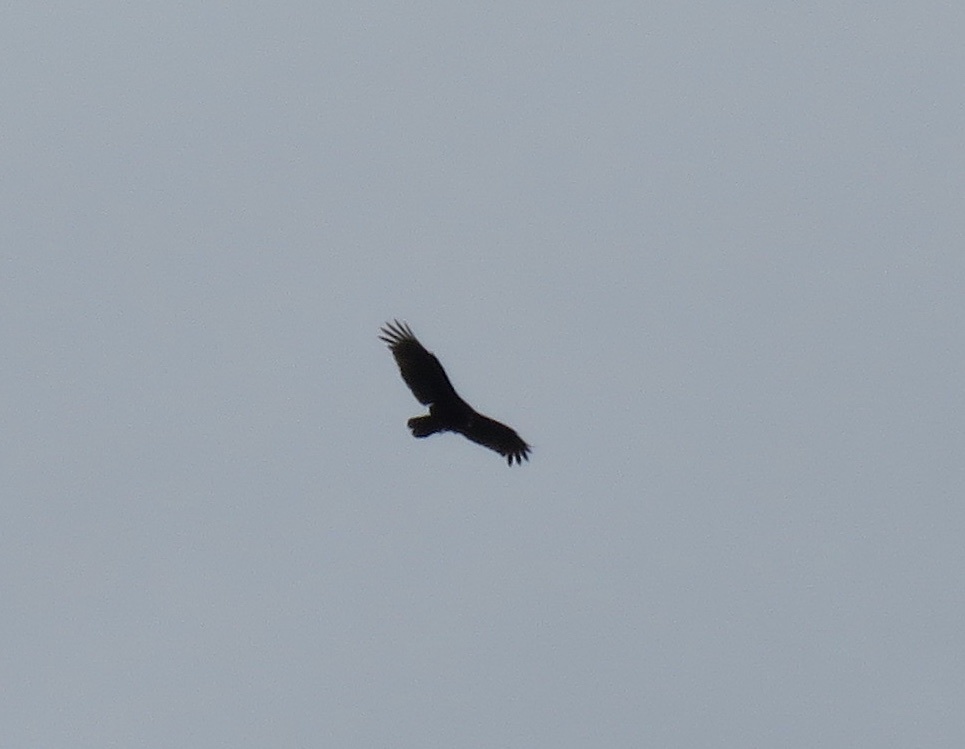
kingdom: Animalia
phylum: Chordata
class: Aves
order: Accipitriformes
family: Cathartidae
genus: Cathartes
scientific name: Cathartes aura
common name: Turkey vulture
